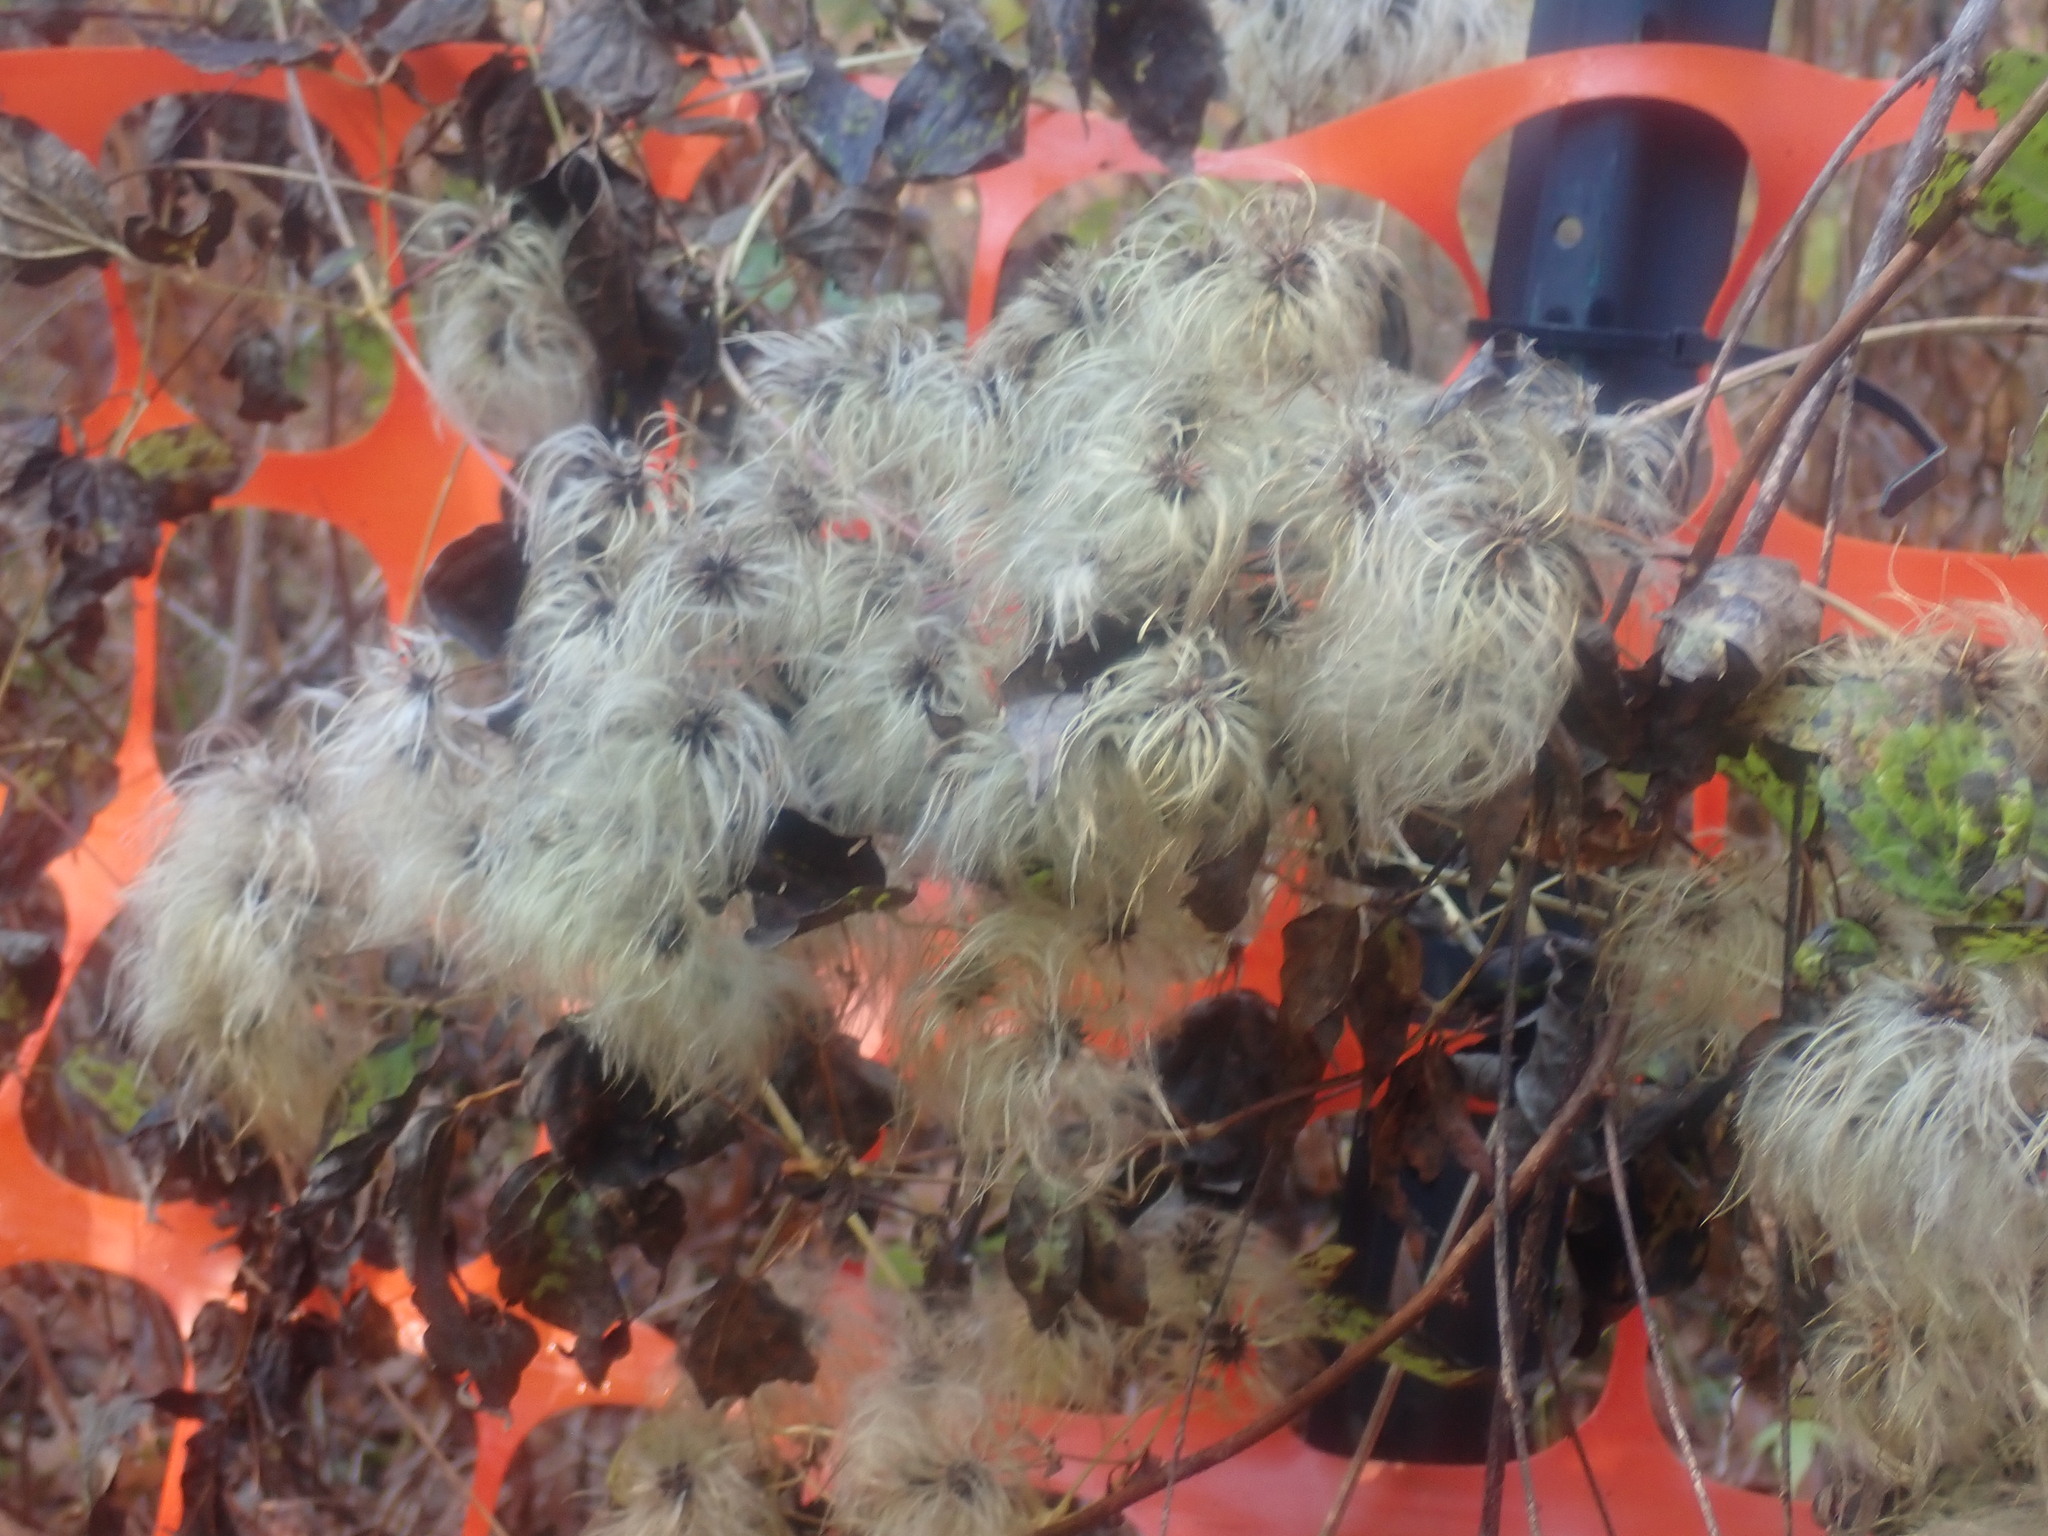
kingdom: Plantae
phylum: Tracheophyta
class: Magnoliopsida
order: Ranunculales
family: Ranunculaceae
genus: Clematis
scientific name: Clematis virginiana
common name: Virgin's-bower
